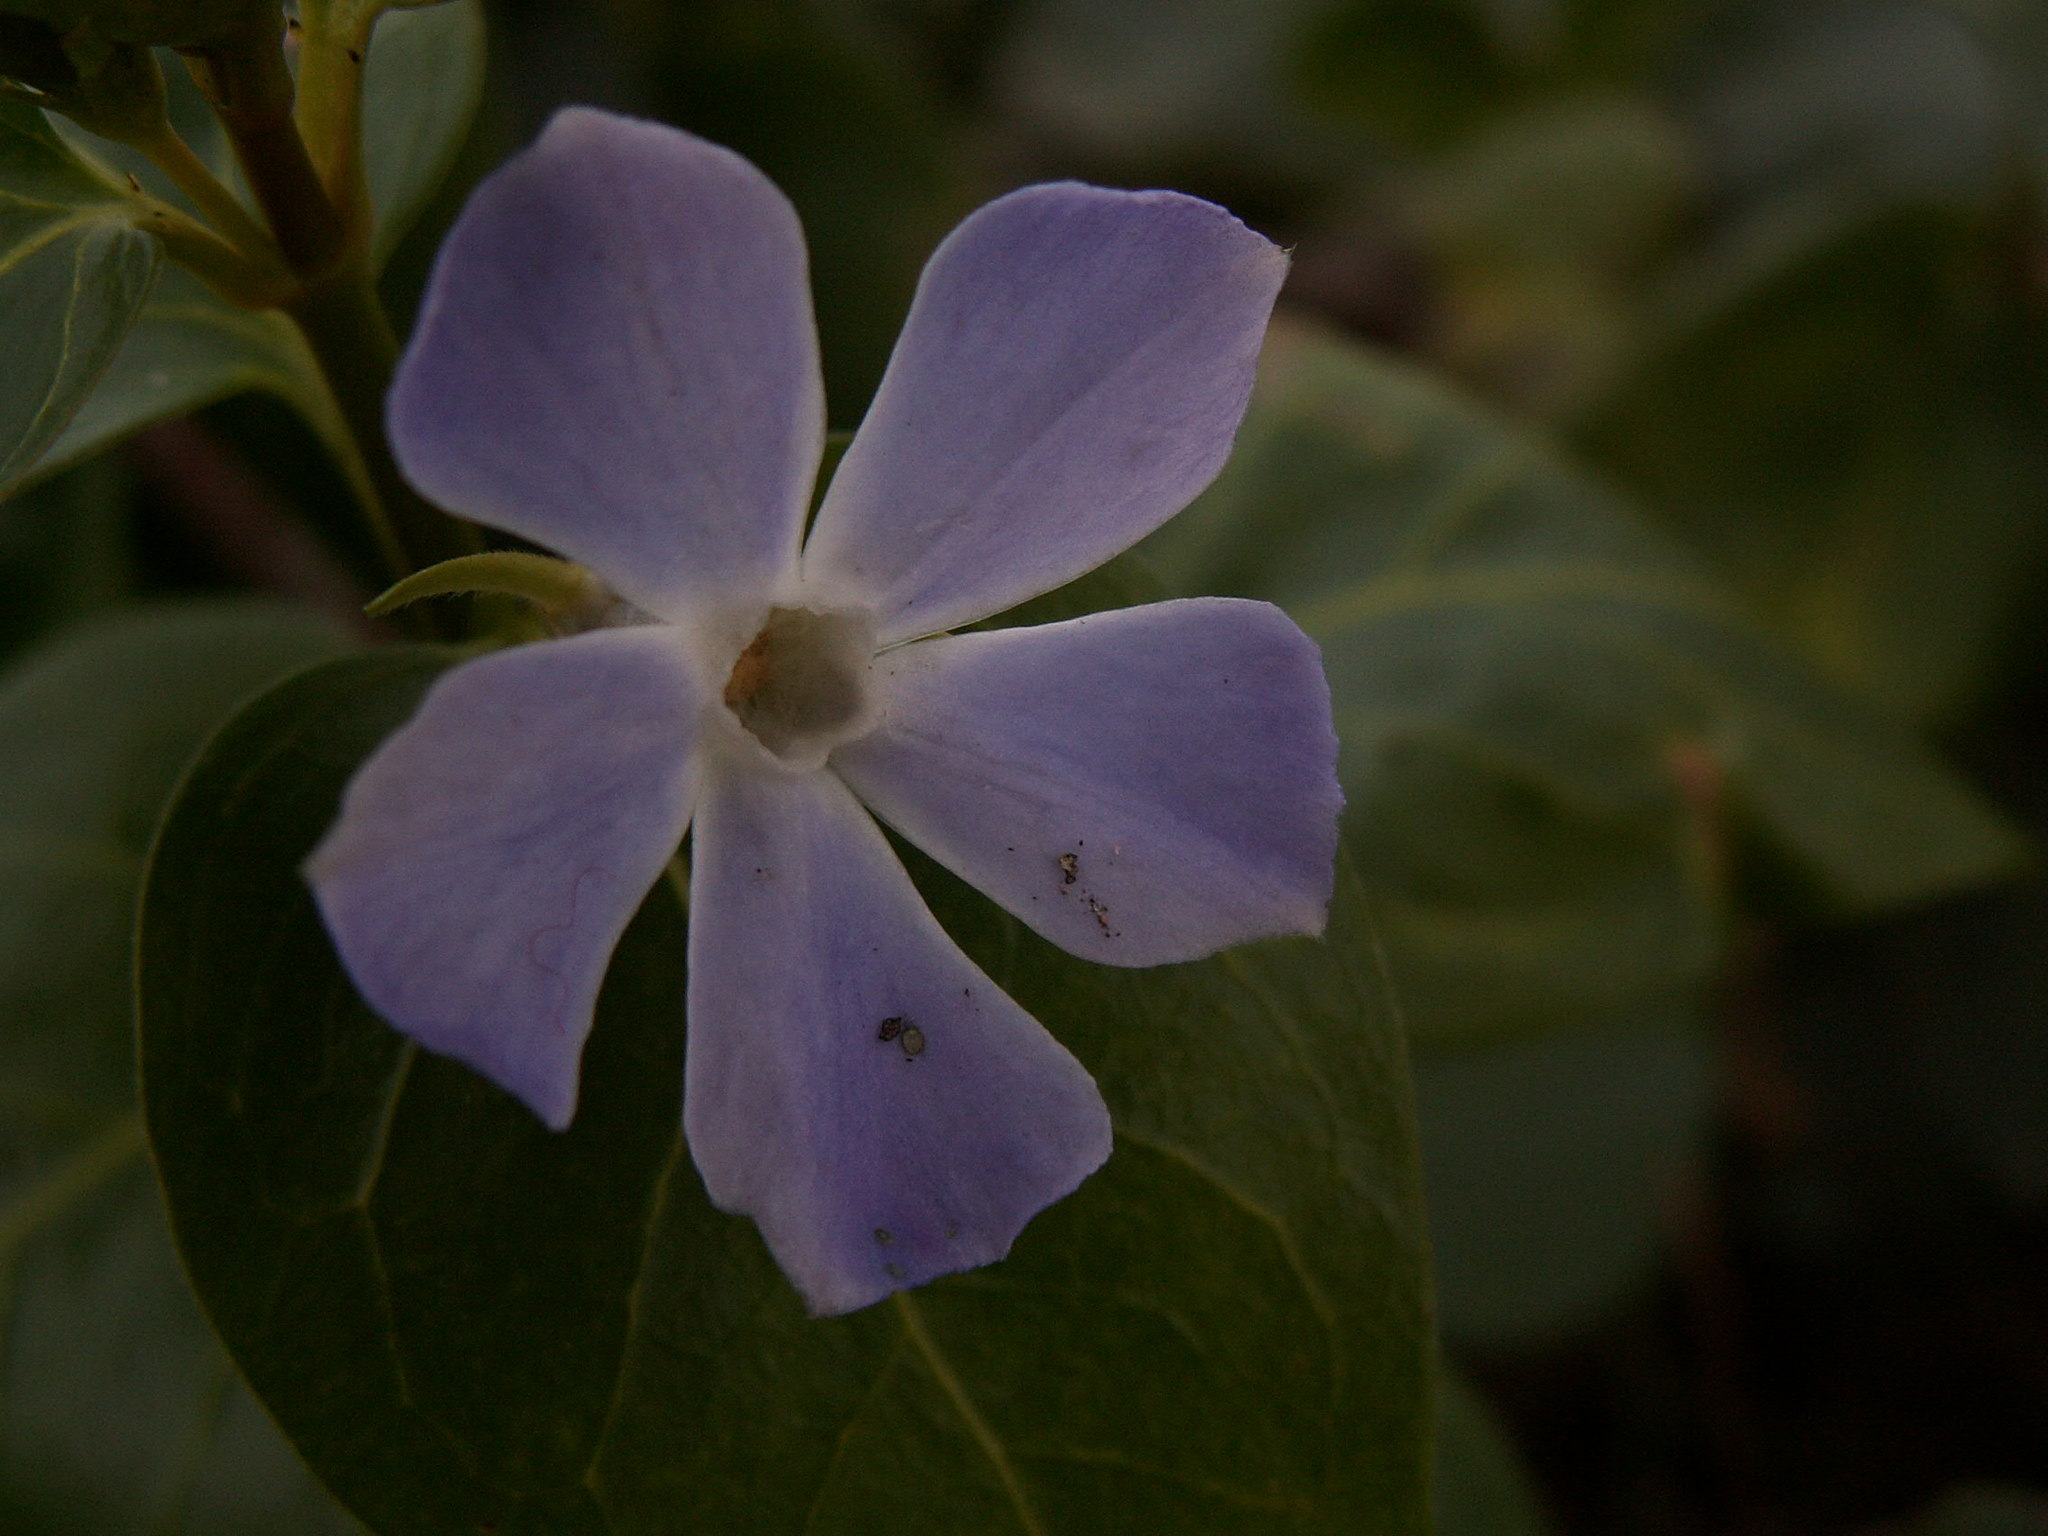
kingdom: Plantae
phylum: Tracheophyta
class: Magnoliopsida
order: Gentianales
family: Apocynaceae
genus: Vinca
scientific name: Vinca major
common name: Greater periwinkle
